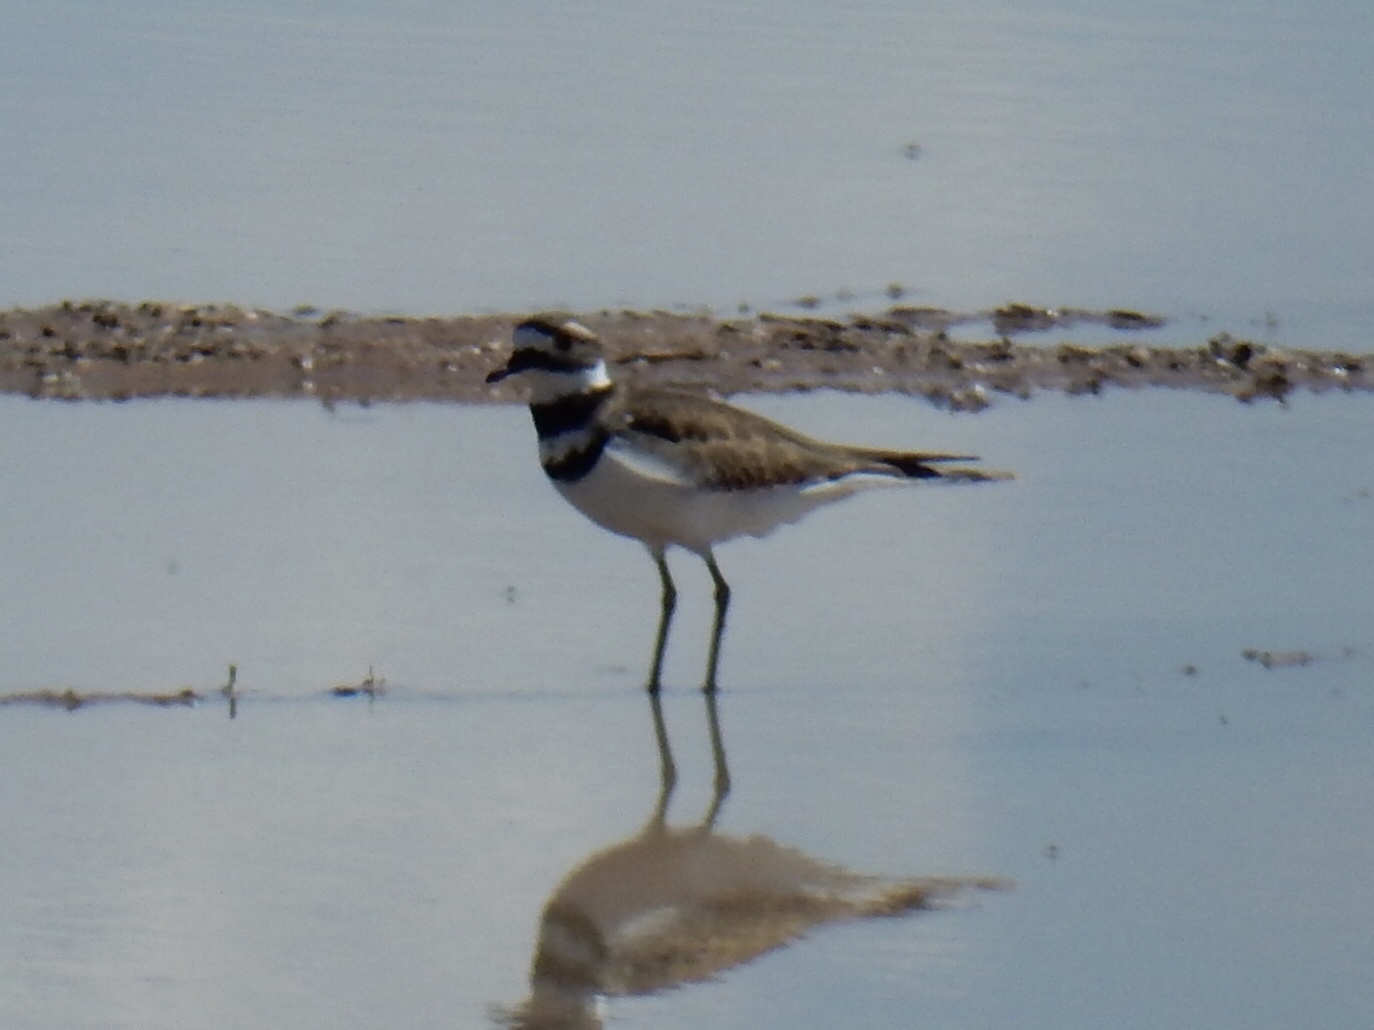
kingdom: Animalia
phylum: Chordata
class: Aves
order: Charadriiformes
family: Charadriidae
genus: Charadrius
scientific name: Charadrius vociferus
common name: Killdeer
